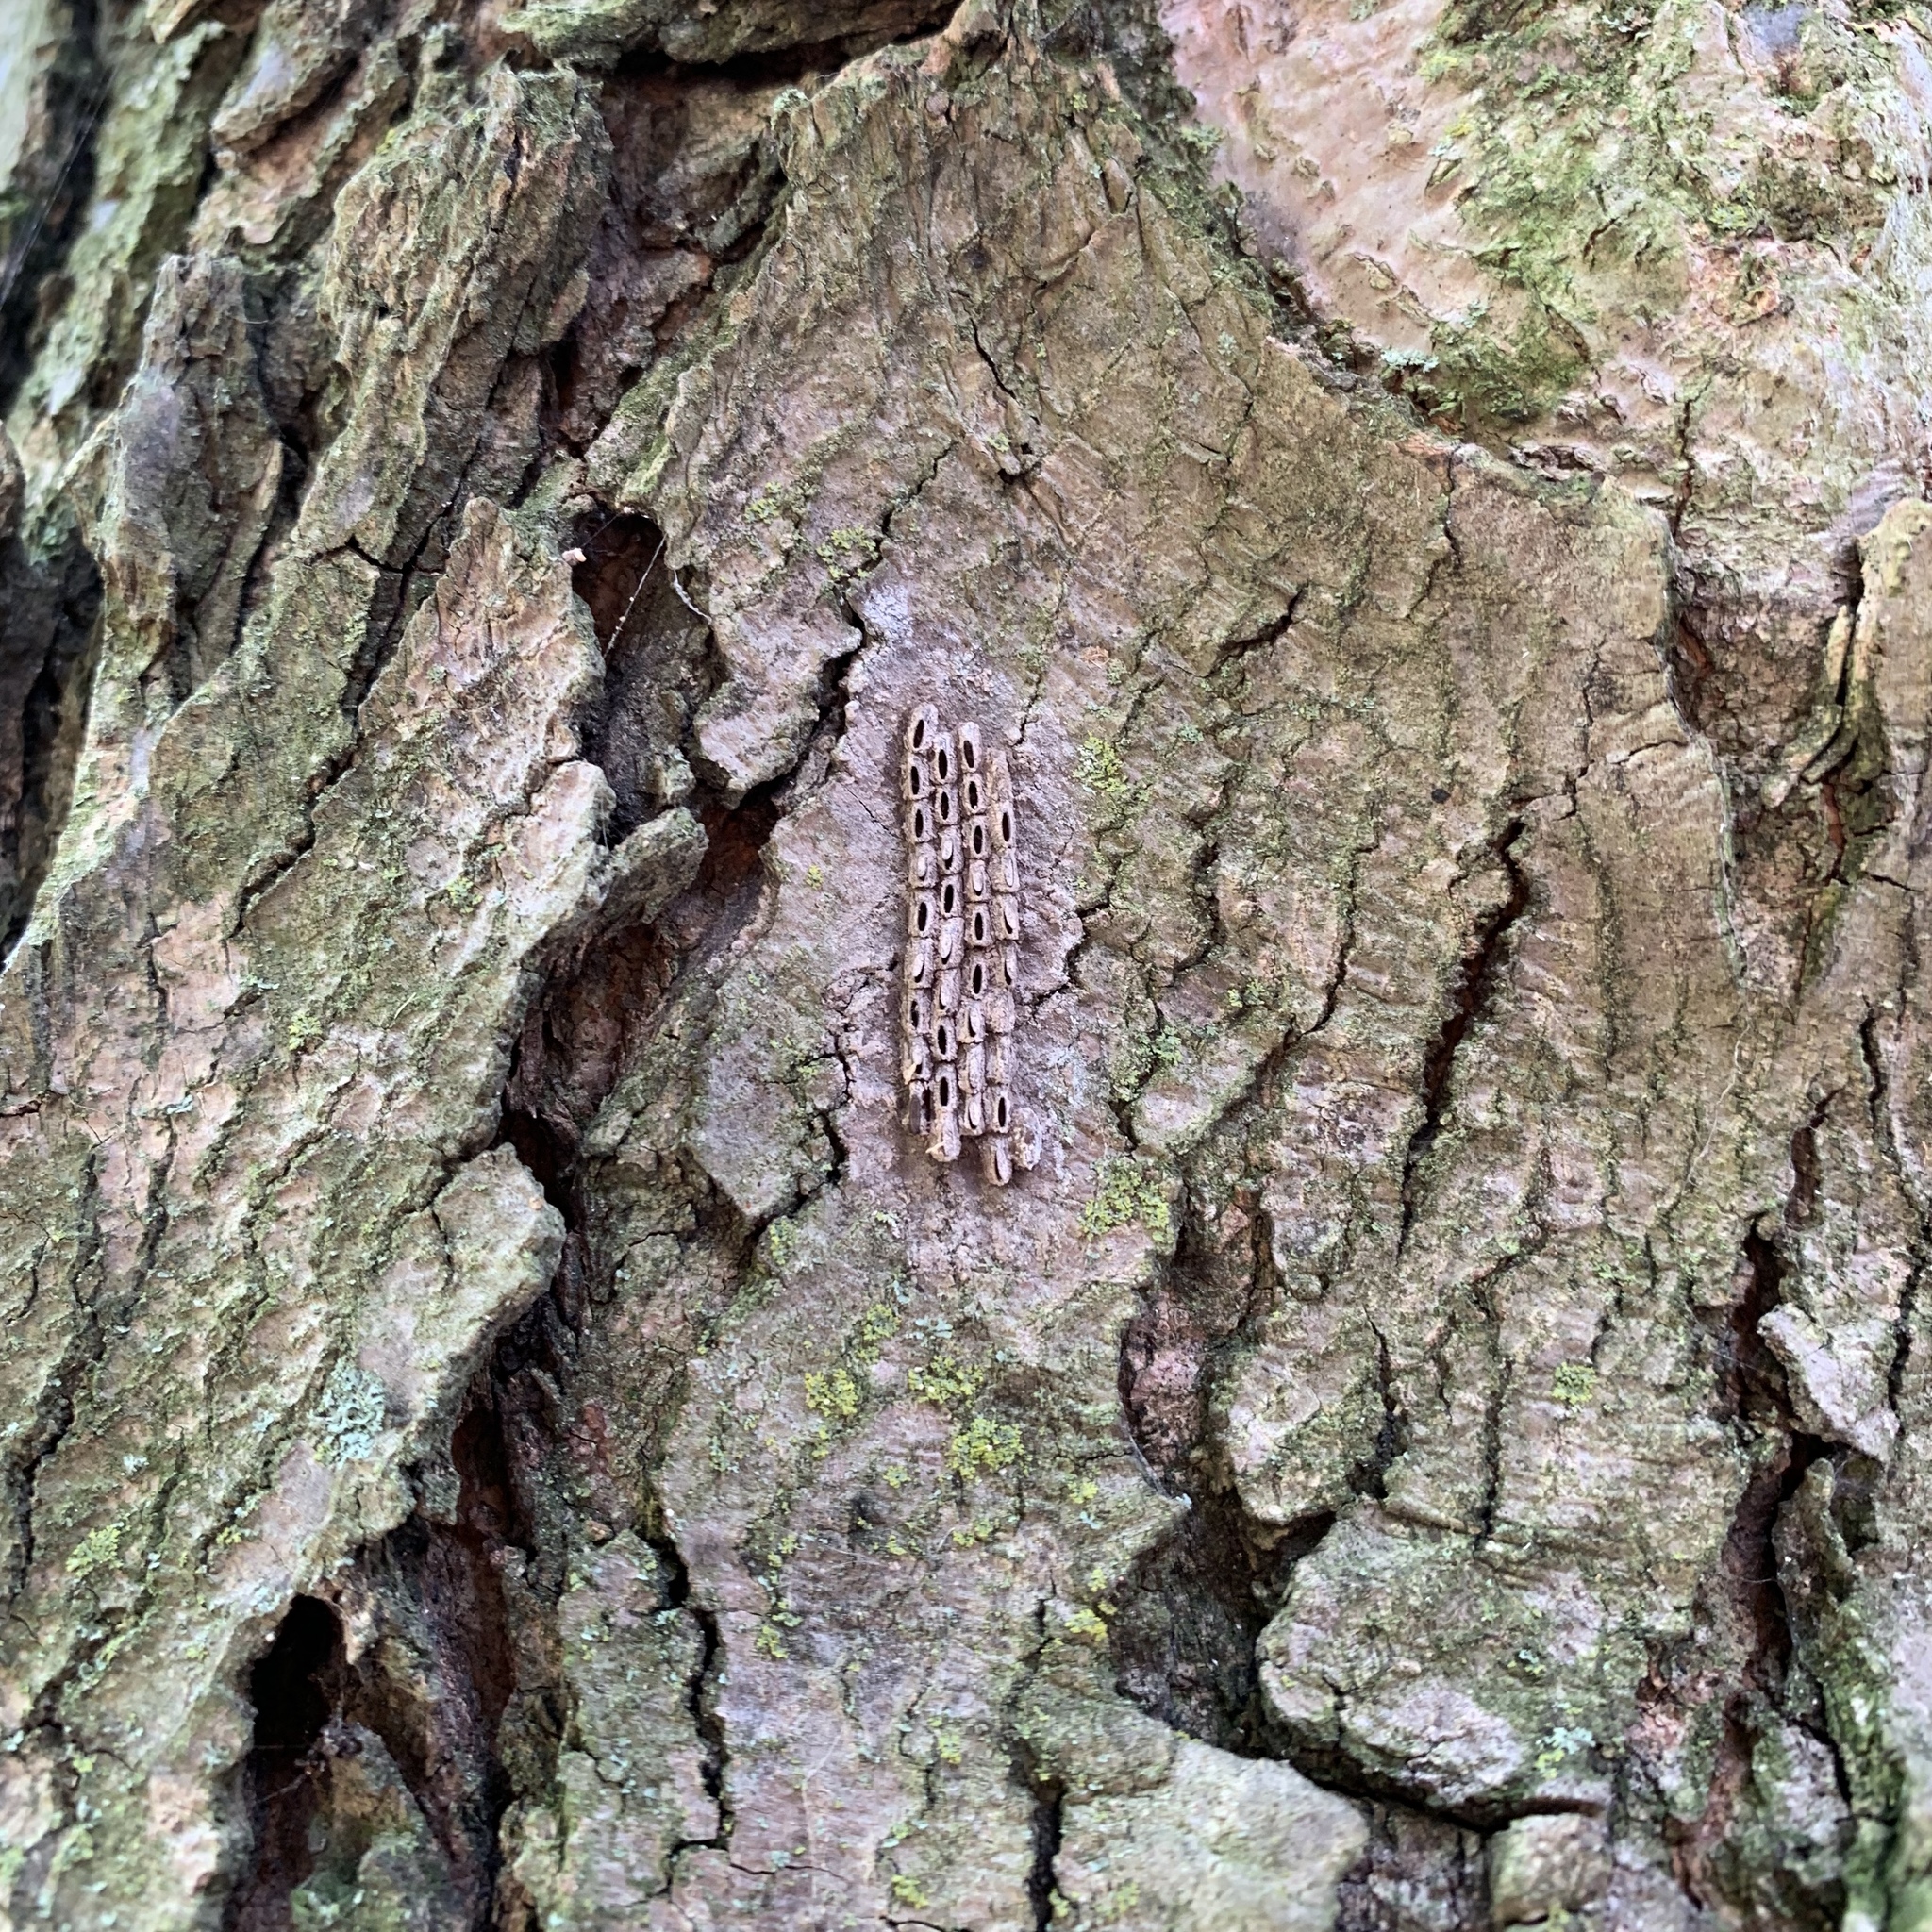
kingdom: Animalia
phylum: Arthropoda
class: Insecta
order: Hemiptera
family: Fulgoridae
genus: Lycorma
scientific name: Lycorma delicatula
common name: Spotted lanternfly
